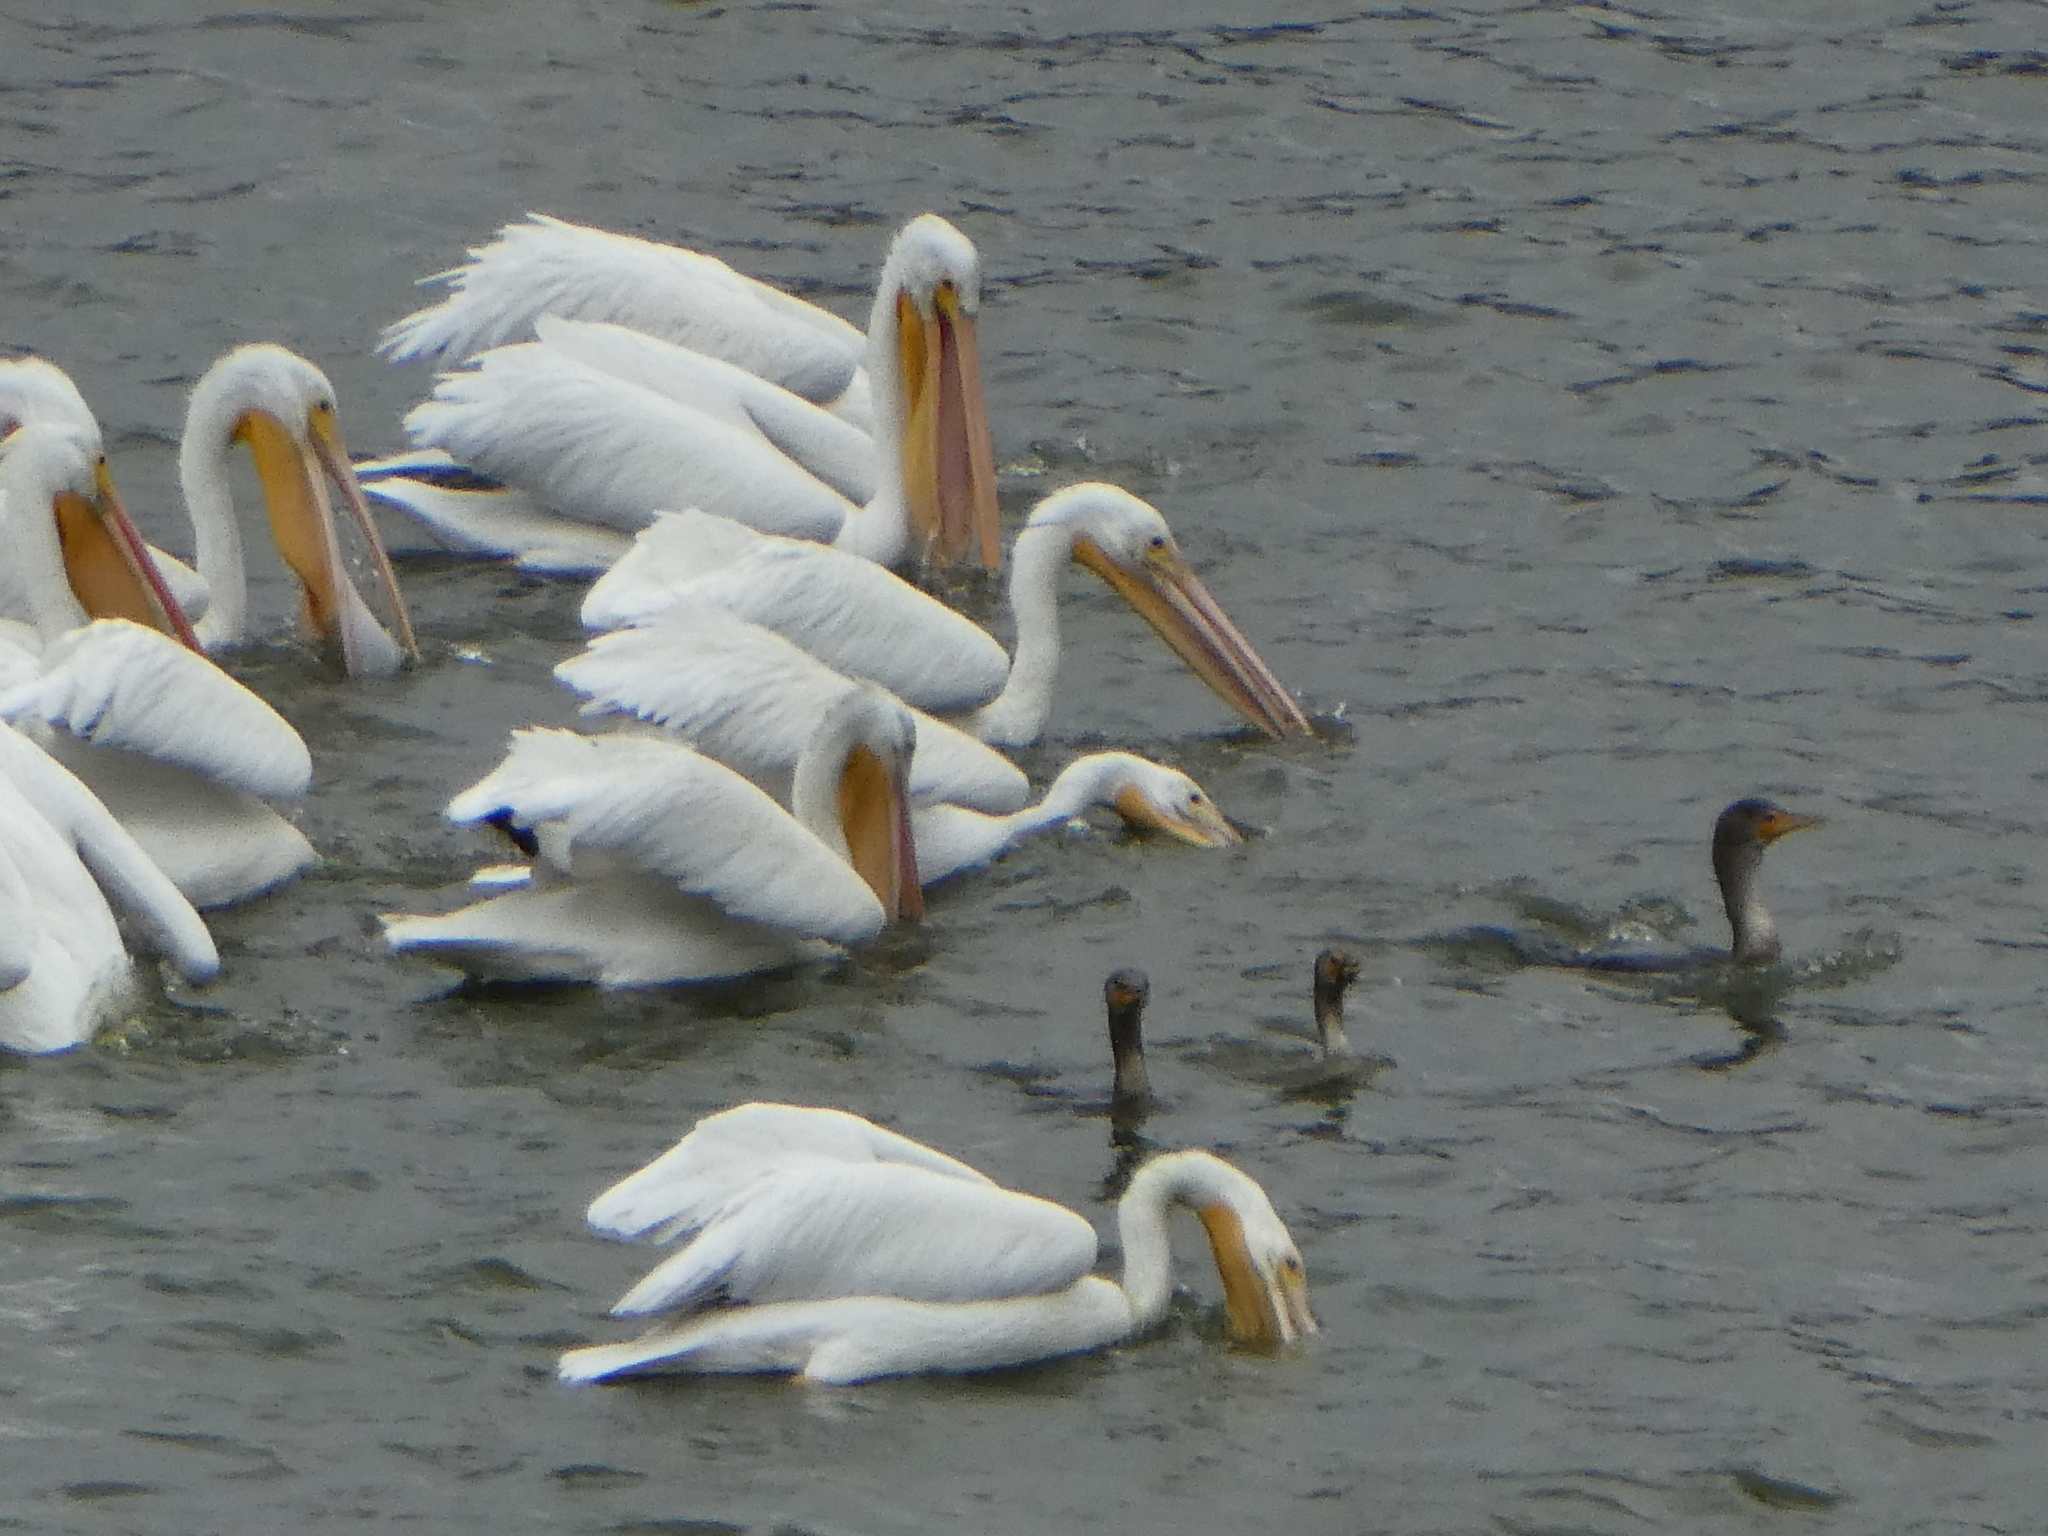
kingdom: Animalia
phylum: Chordata
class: Aves
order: Pelecaniformes
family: Pelecanidae
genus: Pelecanus
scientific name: Pelecanus erythrorhynchos
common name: American white pelican
